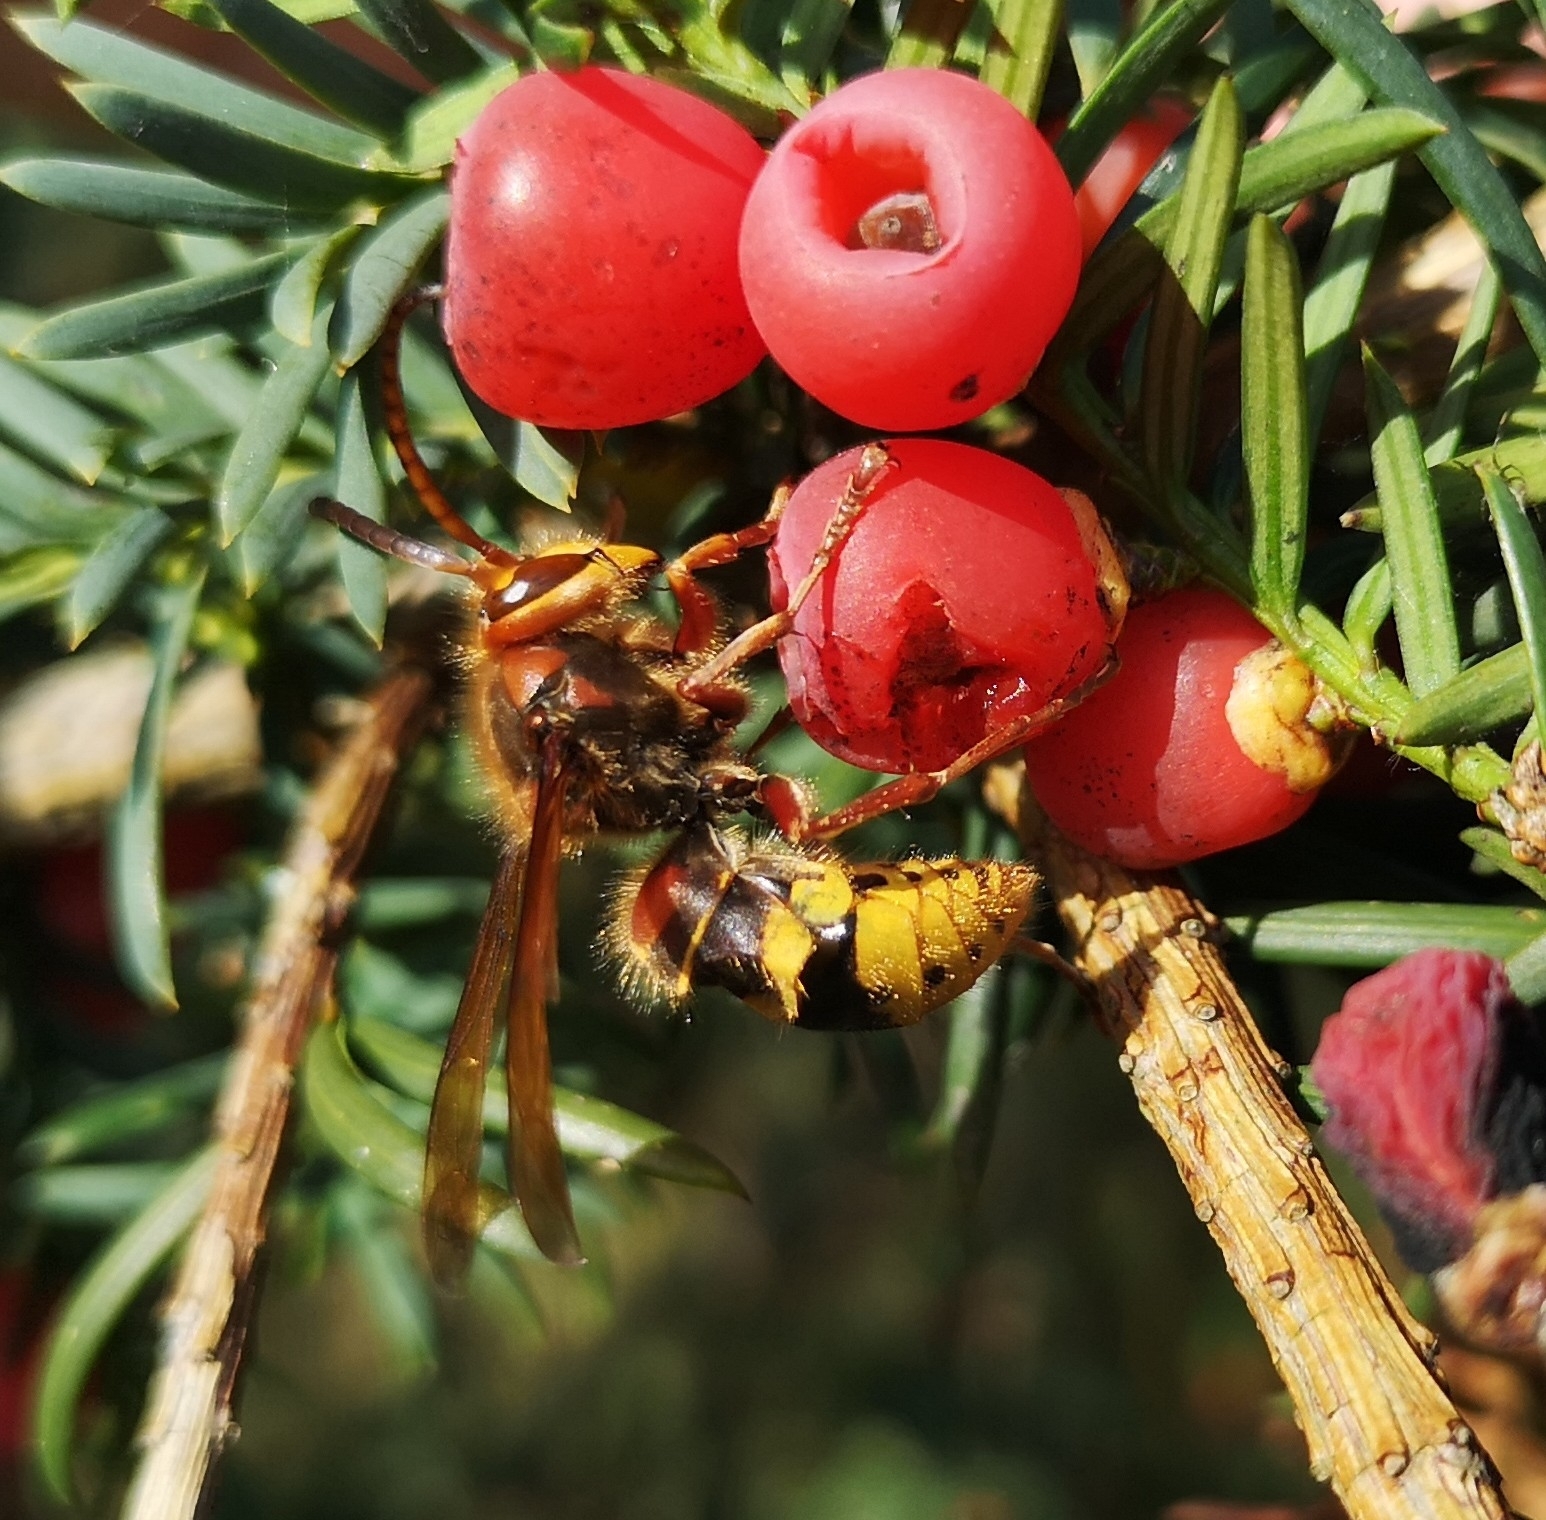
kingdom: Animalia
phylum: Arthropoda
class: Insecta
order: Hymenoptera
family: Vespidae
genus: Vespa
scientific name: Vespa crabro
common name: Hornet
